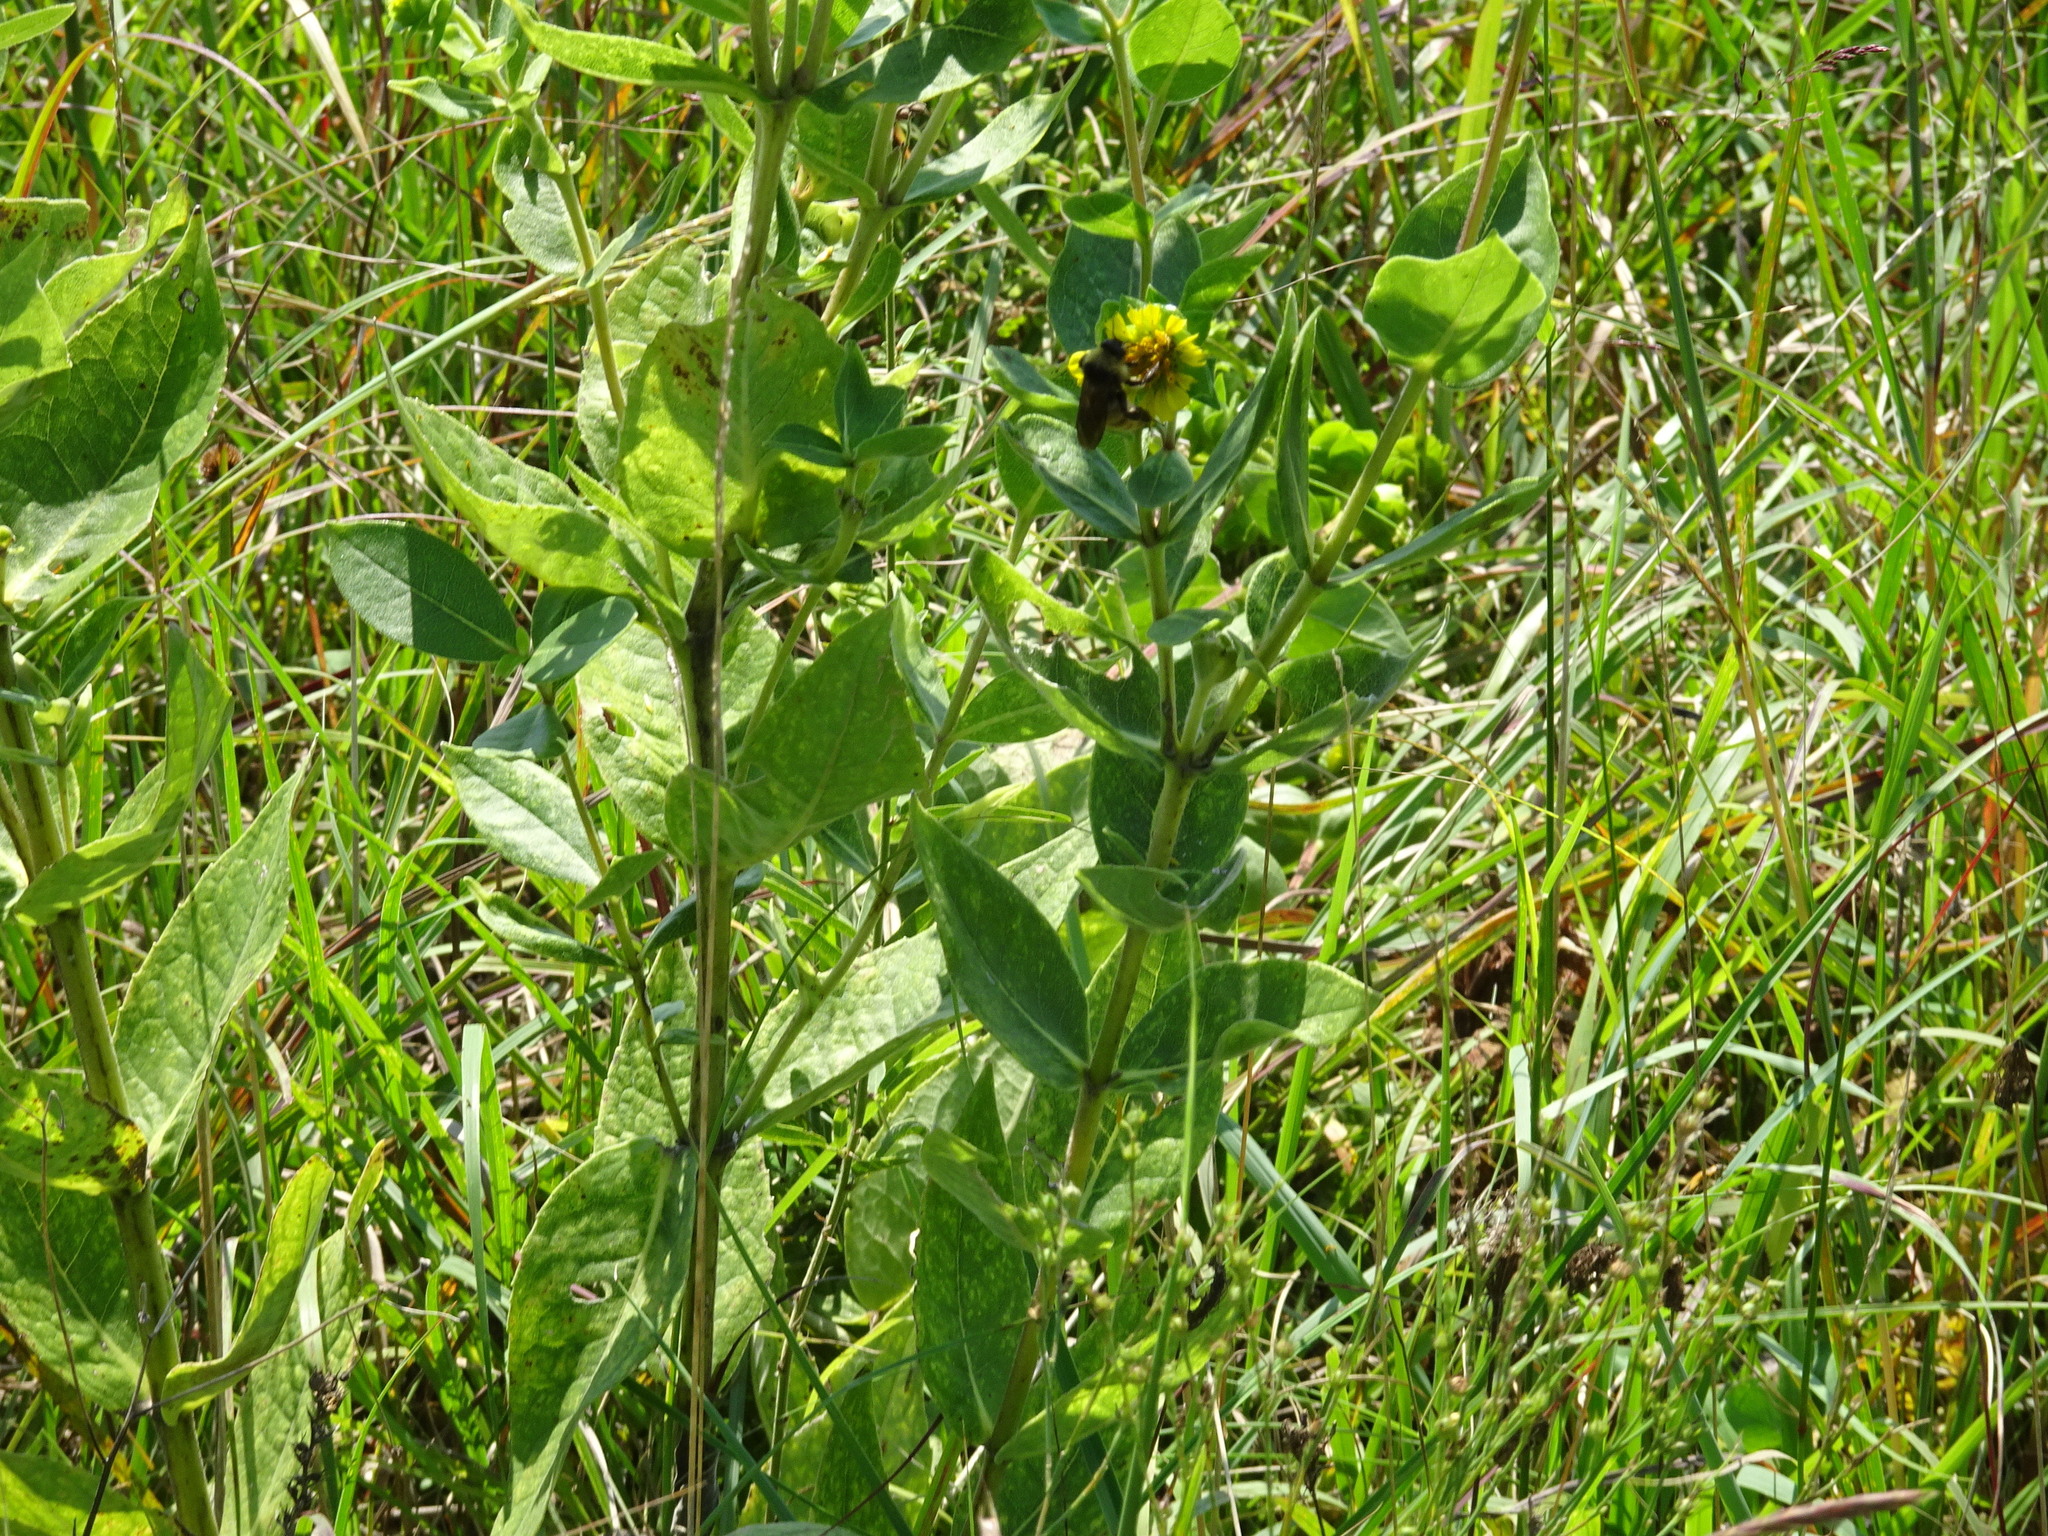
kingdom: Plantae
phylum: Tracheophyta
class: Magnoliopsida
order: Asterales
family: Asteraceae
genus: Silphium
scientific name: Silphium integrifolium
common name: Whole-leaf rosinweed
